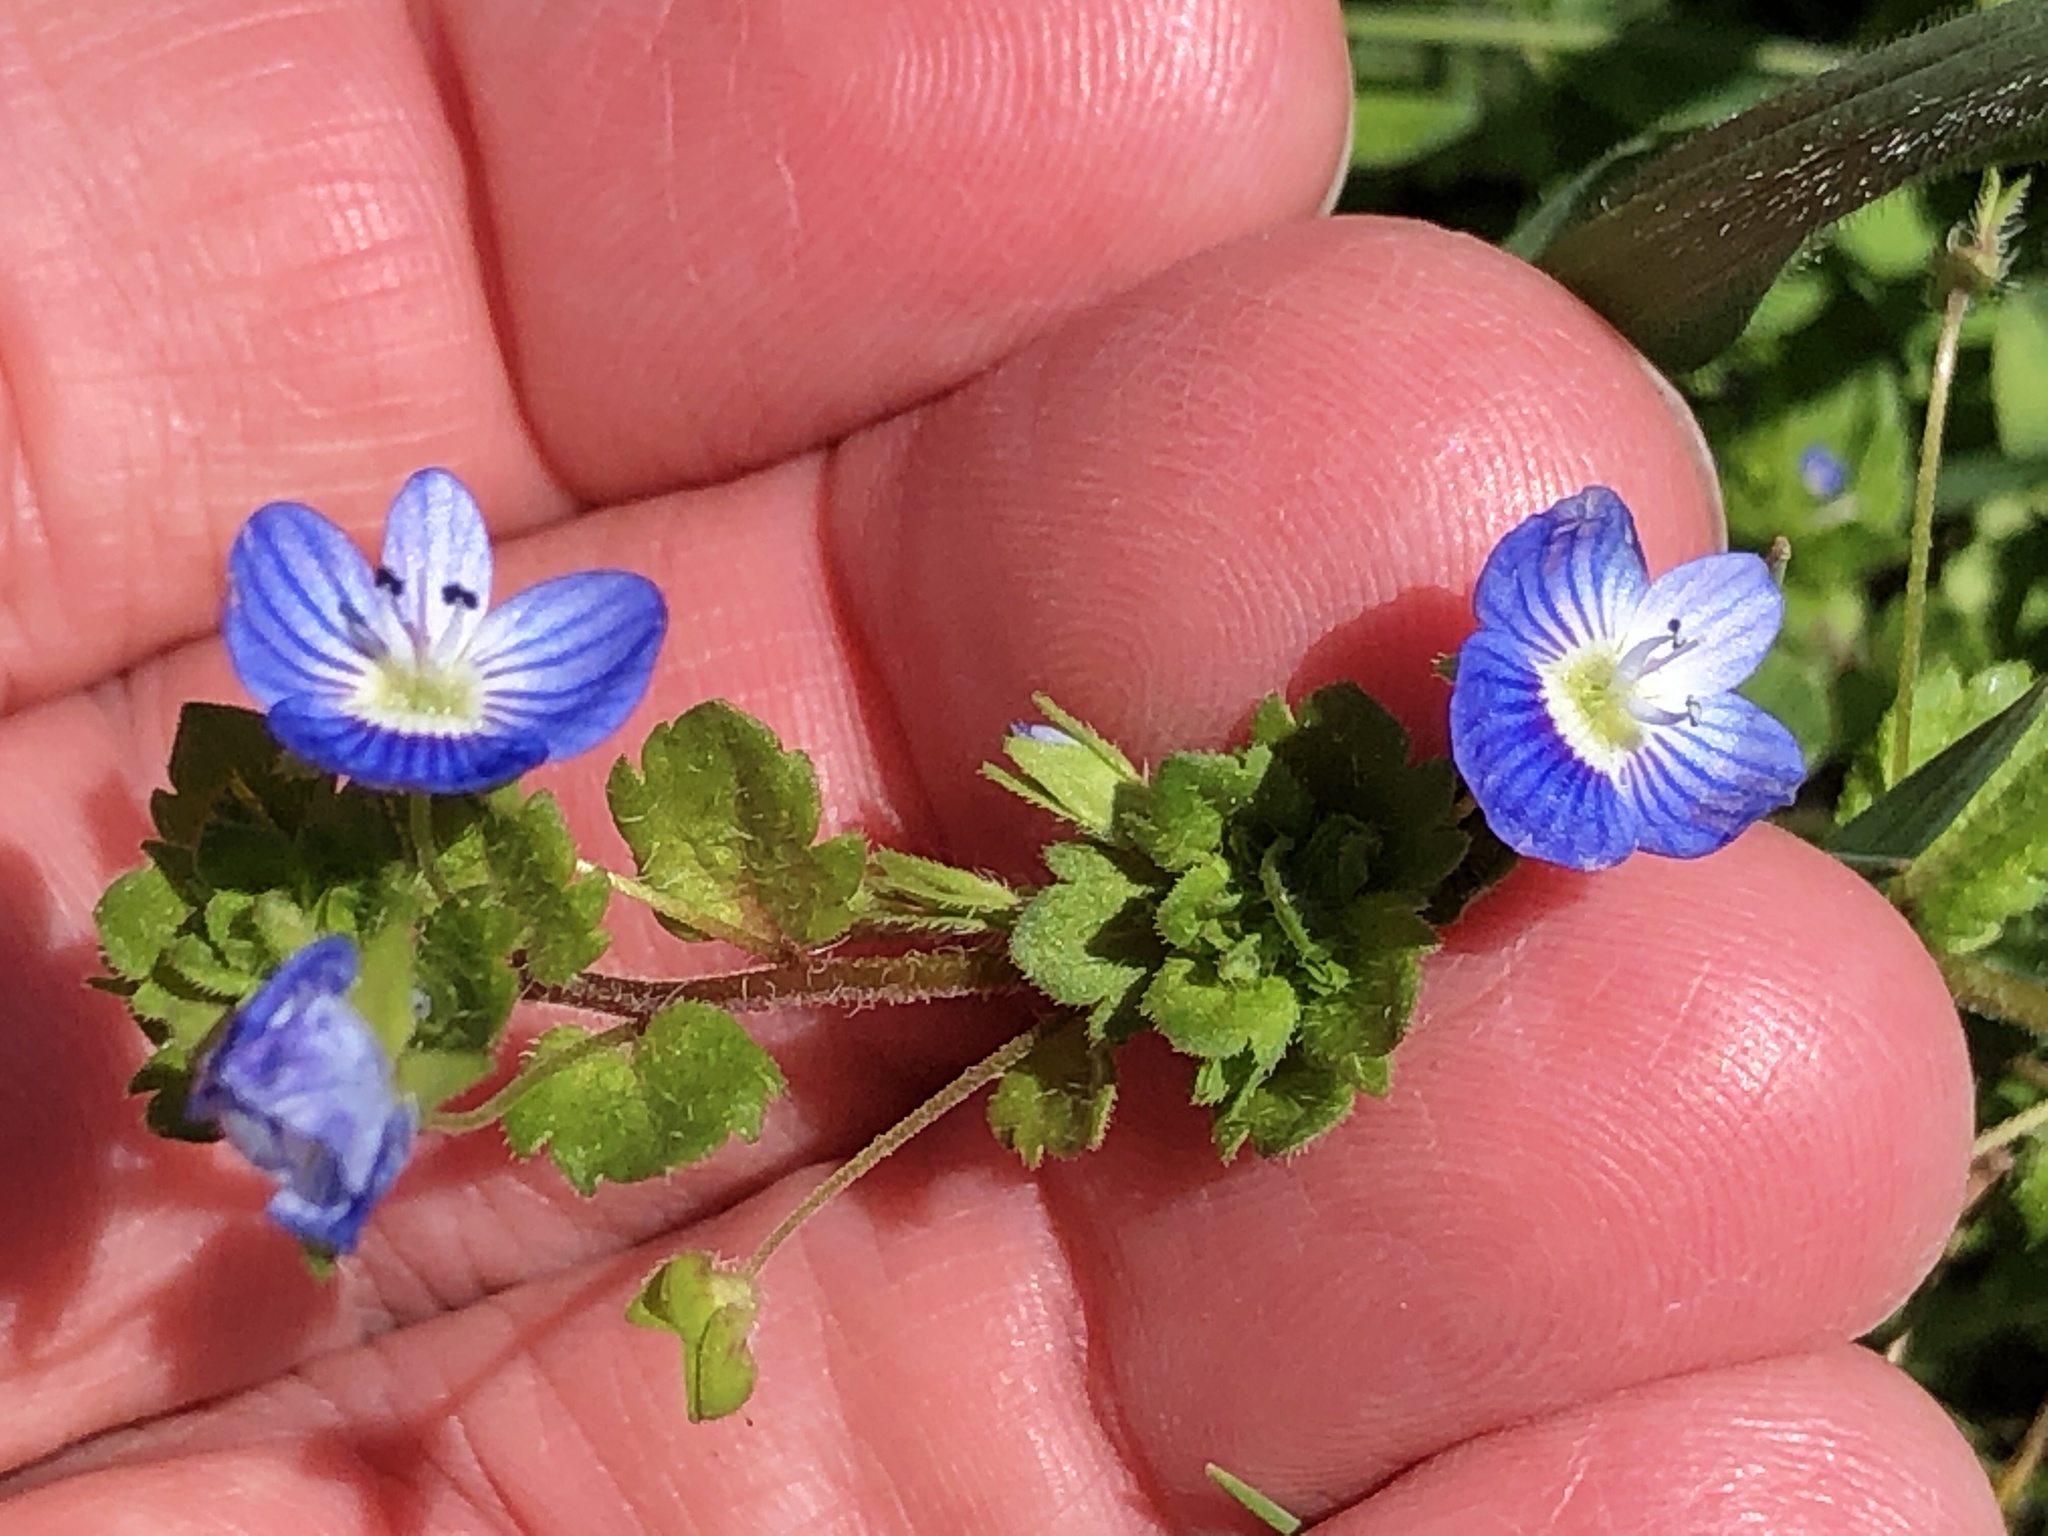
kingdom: Plantae
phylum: Tracheophyta
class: Magnoliopsida
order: Lamiales
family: Plantaginaceae
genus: Veronica
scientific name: Veronica persica
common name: Common field-speedwell
